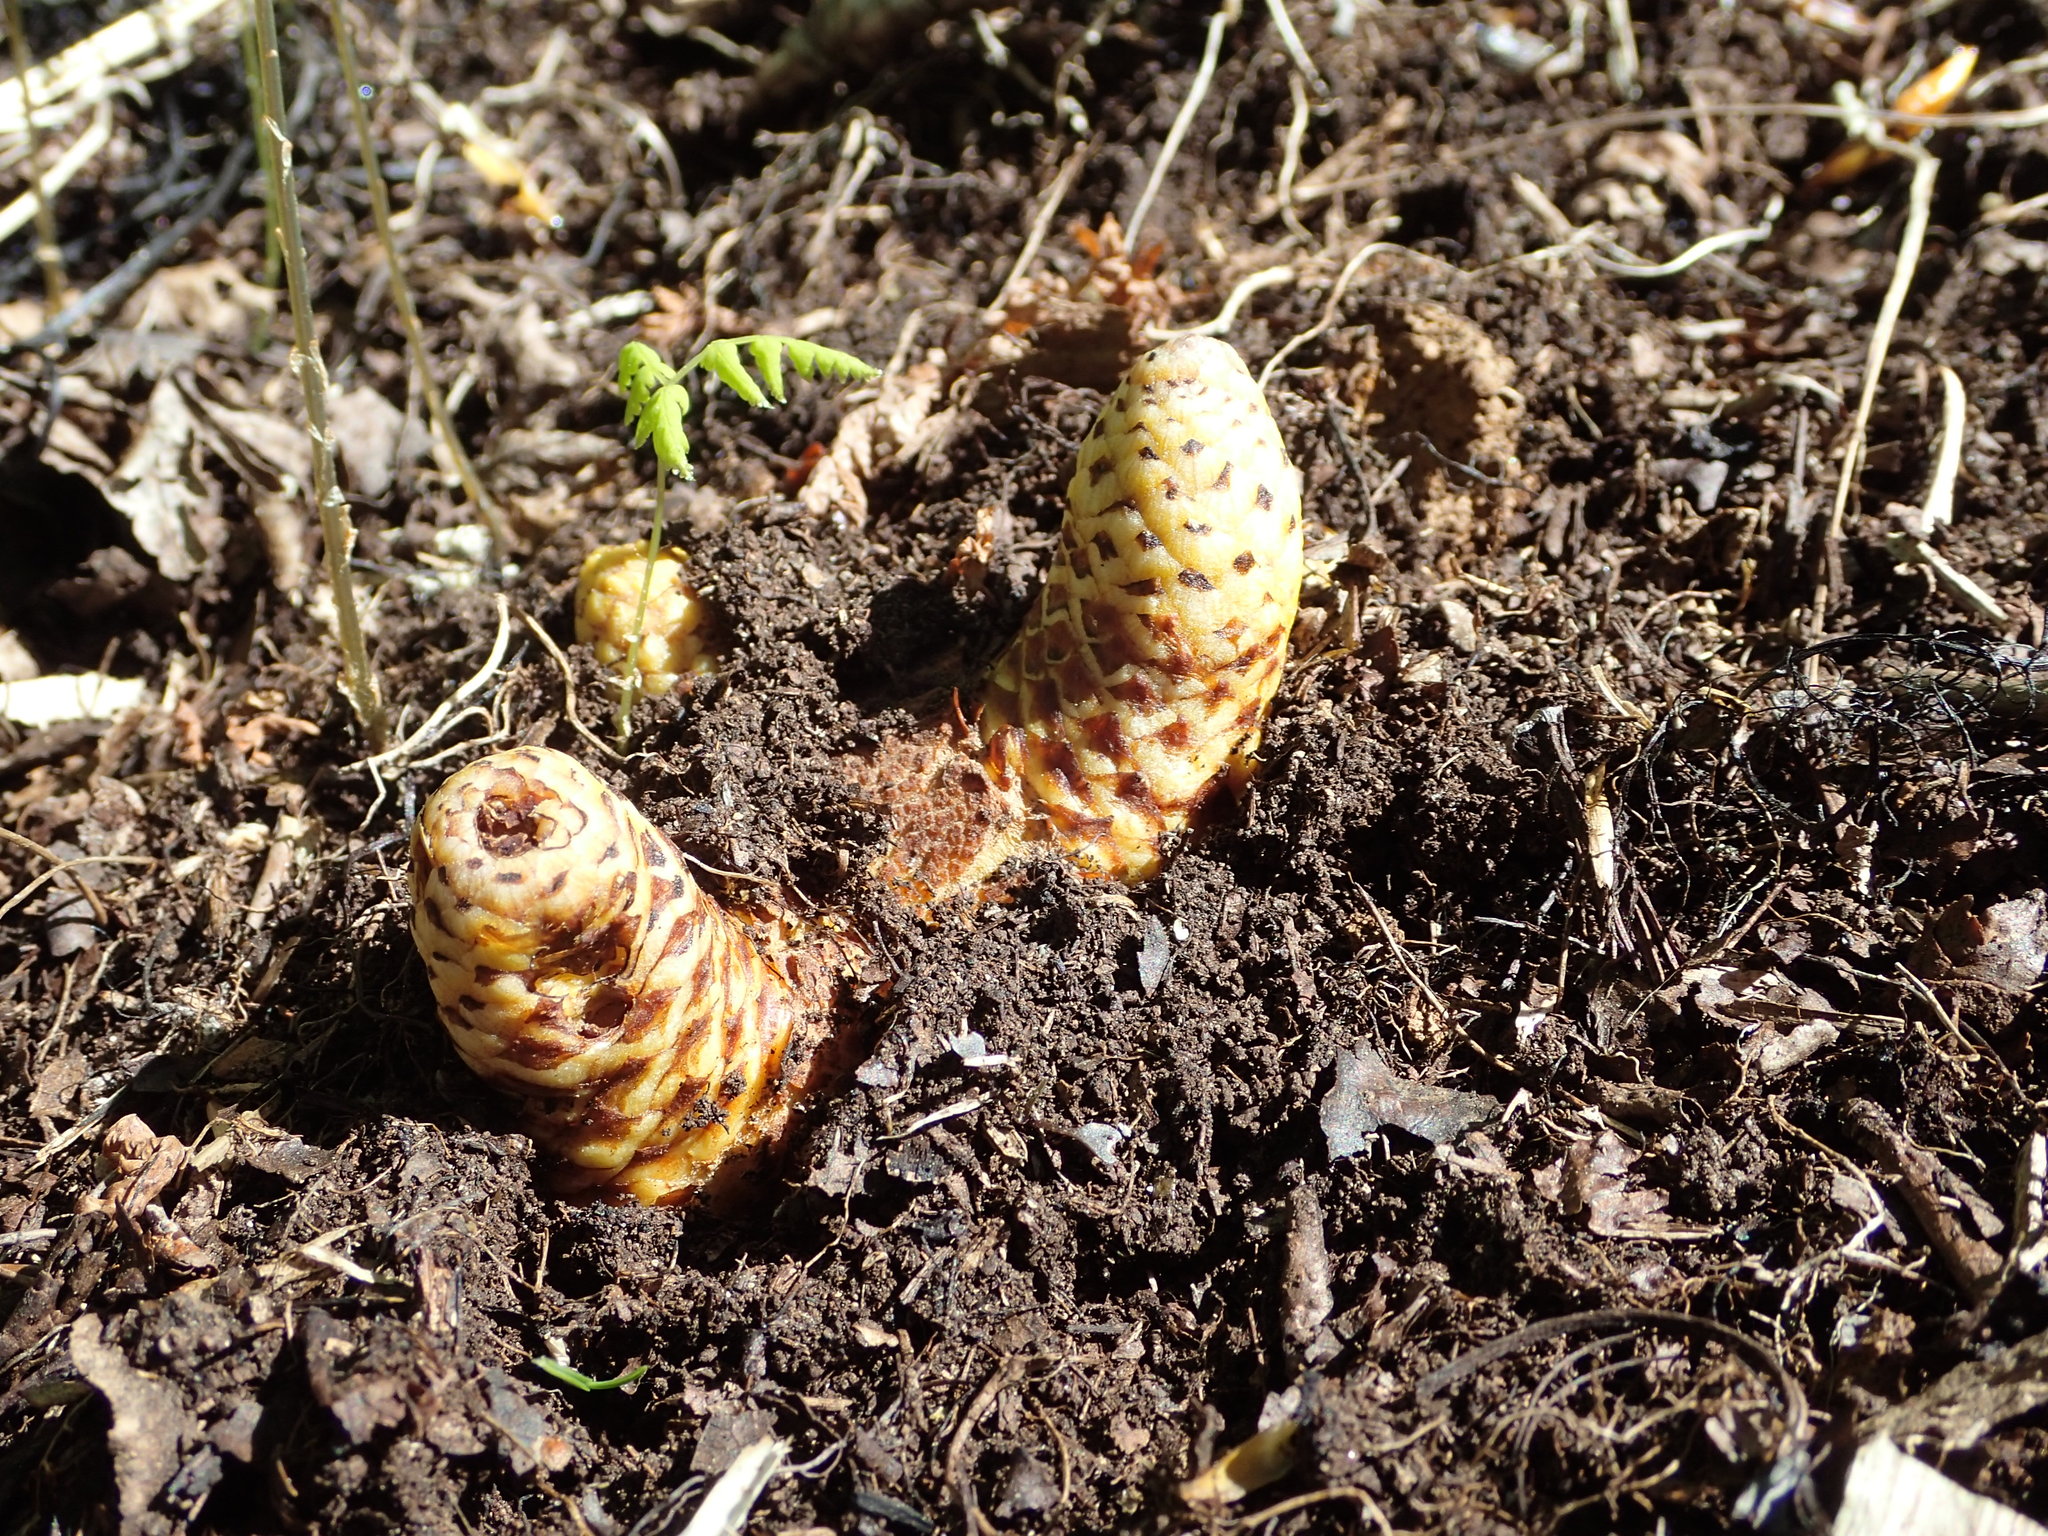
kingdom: Plantae
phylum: Tracheophyta
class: Magnoliopsida
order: Lamiales
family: Orobanchaceae
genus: Boschniakia
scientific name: Boschniakia rossica
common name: Poque
